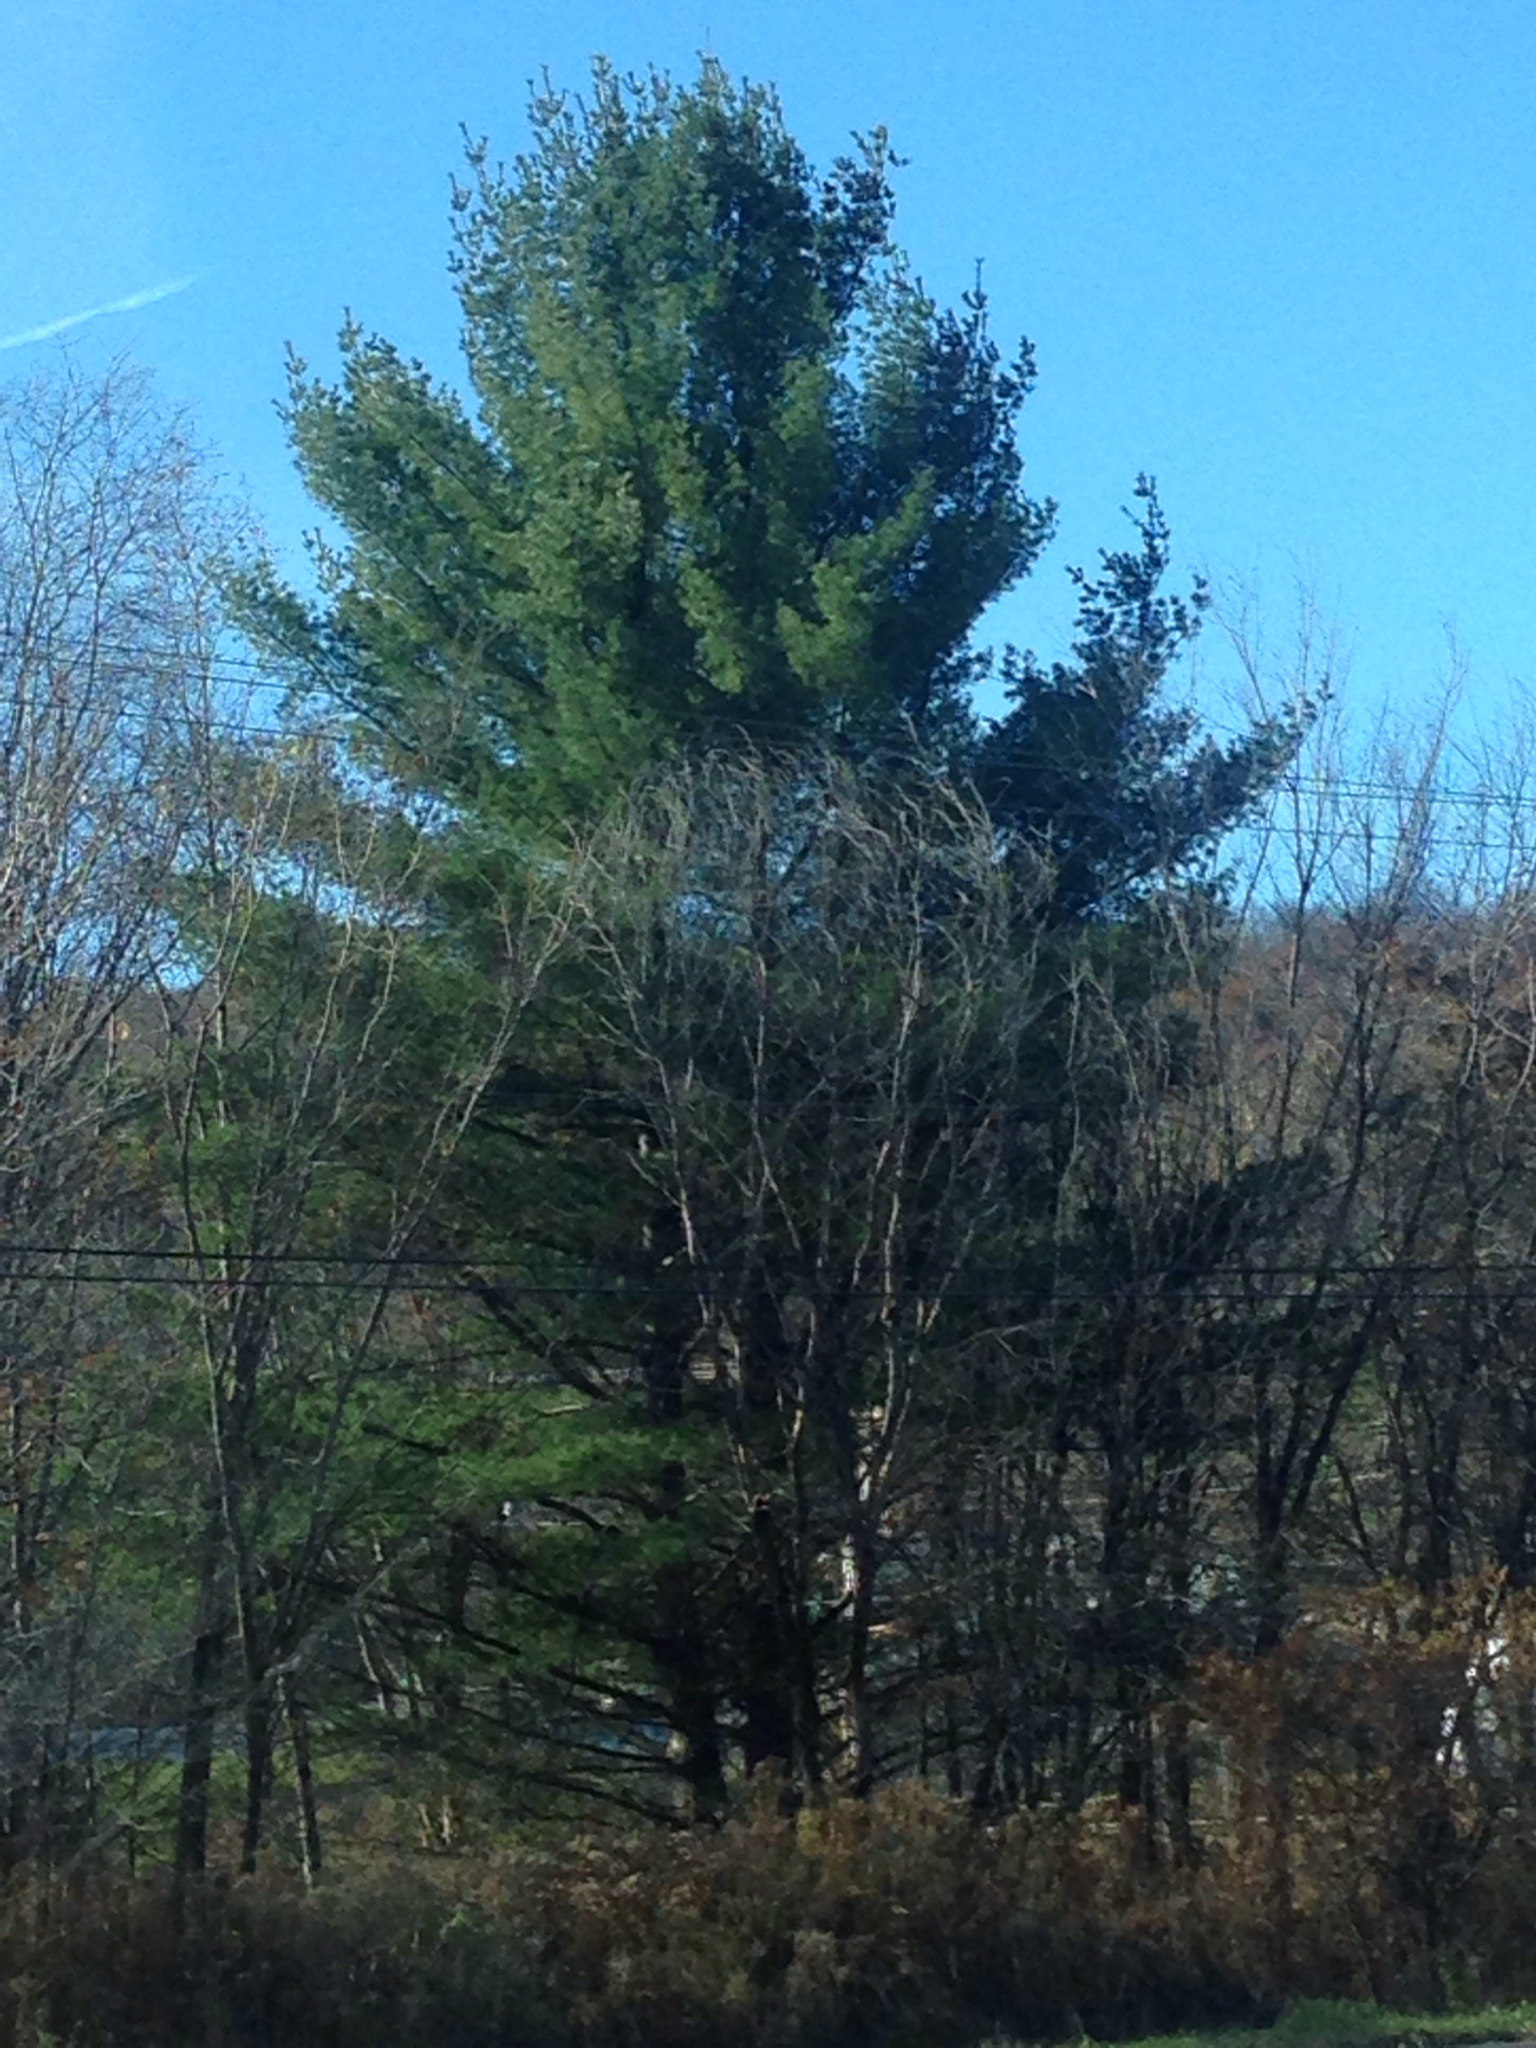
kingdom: Plantae
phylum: Tracheophyta
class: Pinopsida
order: Pinales
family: Pinaceae
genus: Pinus
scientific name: Pinus strobus
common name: Weymouth pine
